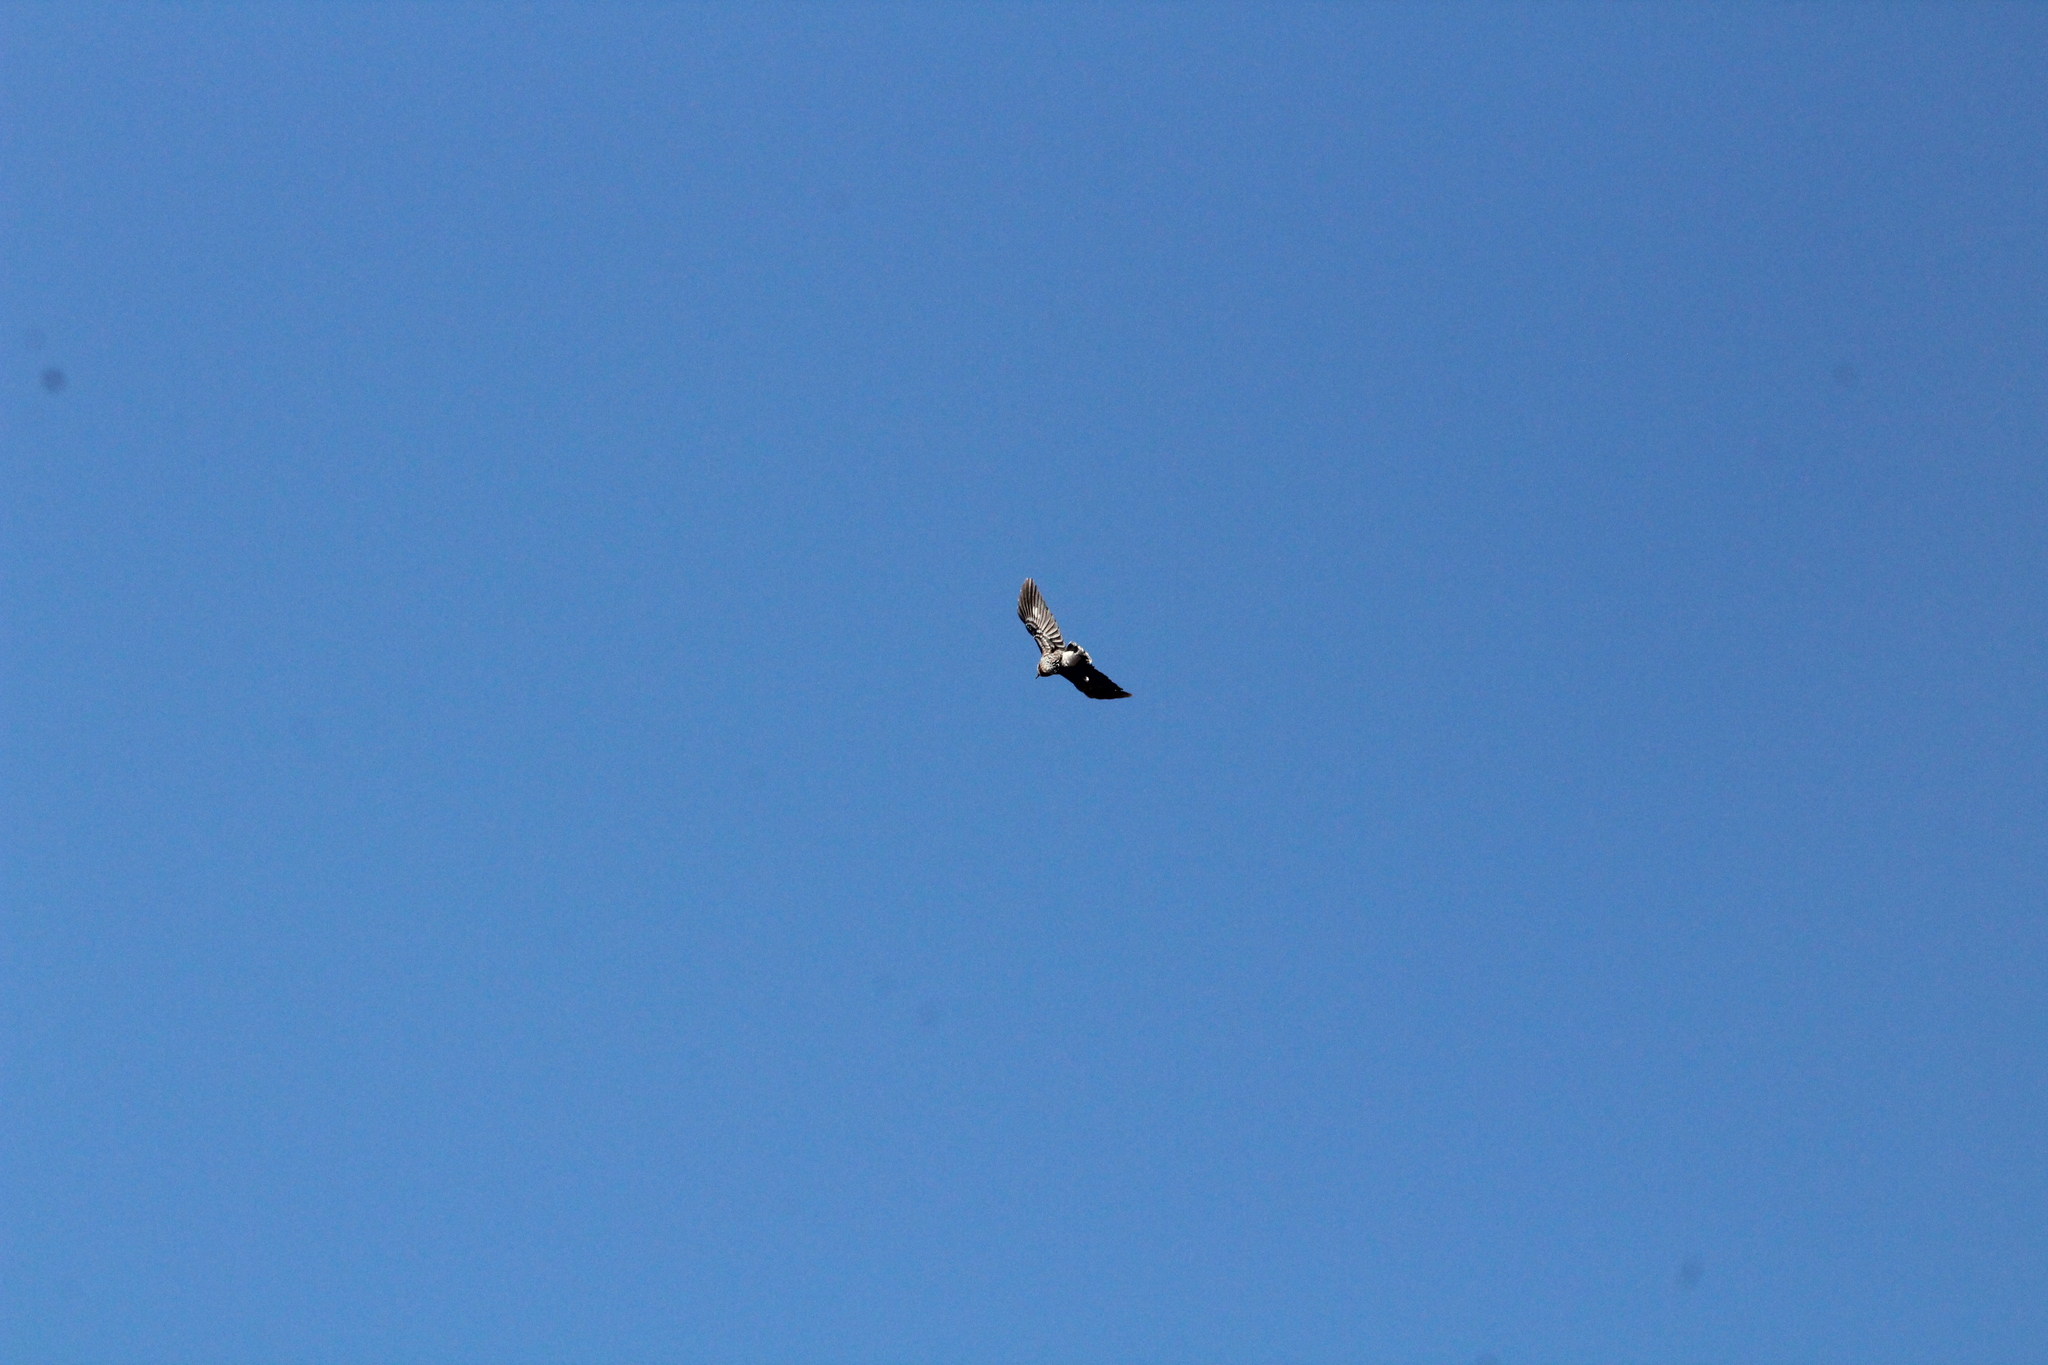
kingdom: Animalia
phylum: Chordata
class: Aves
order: Passeriformes
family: Corvidae
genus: Nucifraga
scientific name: Nucifraga caryocatactes
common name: Spotted nutcracker
